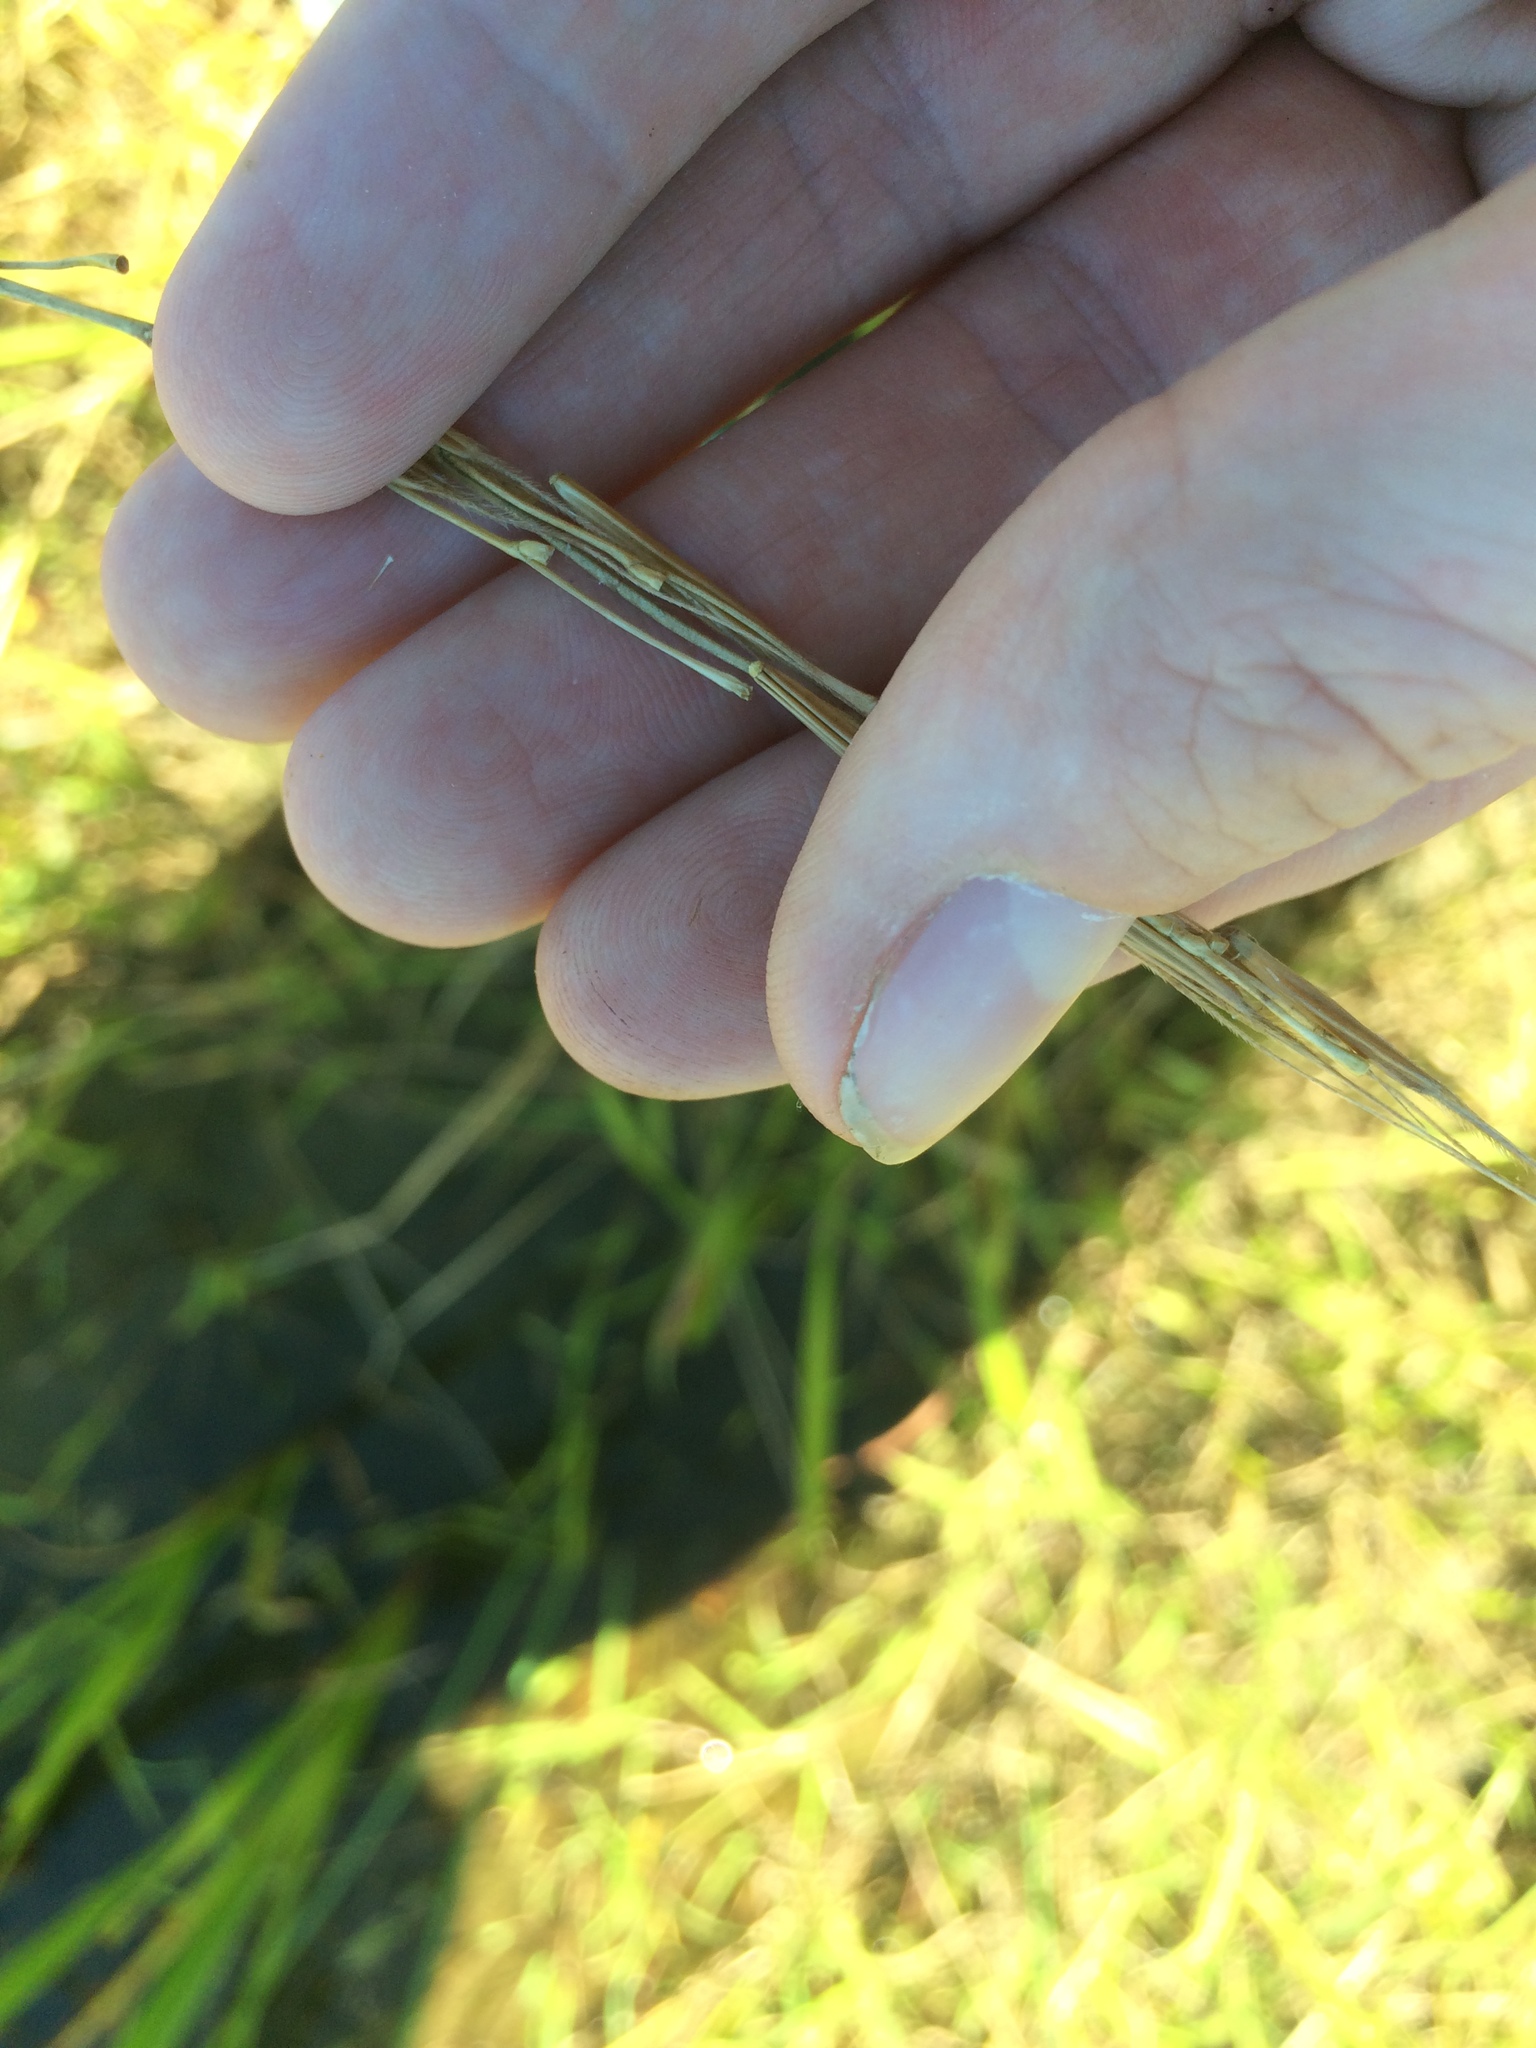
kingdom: Plantae
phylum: Tracheophyta
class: Liliopsida
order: Poales
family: Poaceae
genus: Zizania
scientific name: Zizania palustris
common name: Northern wild rice
